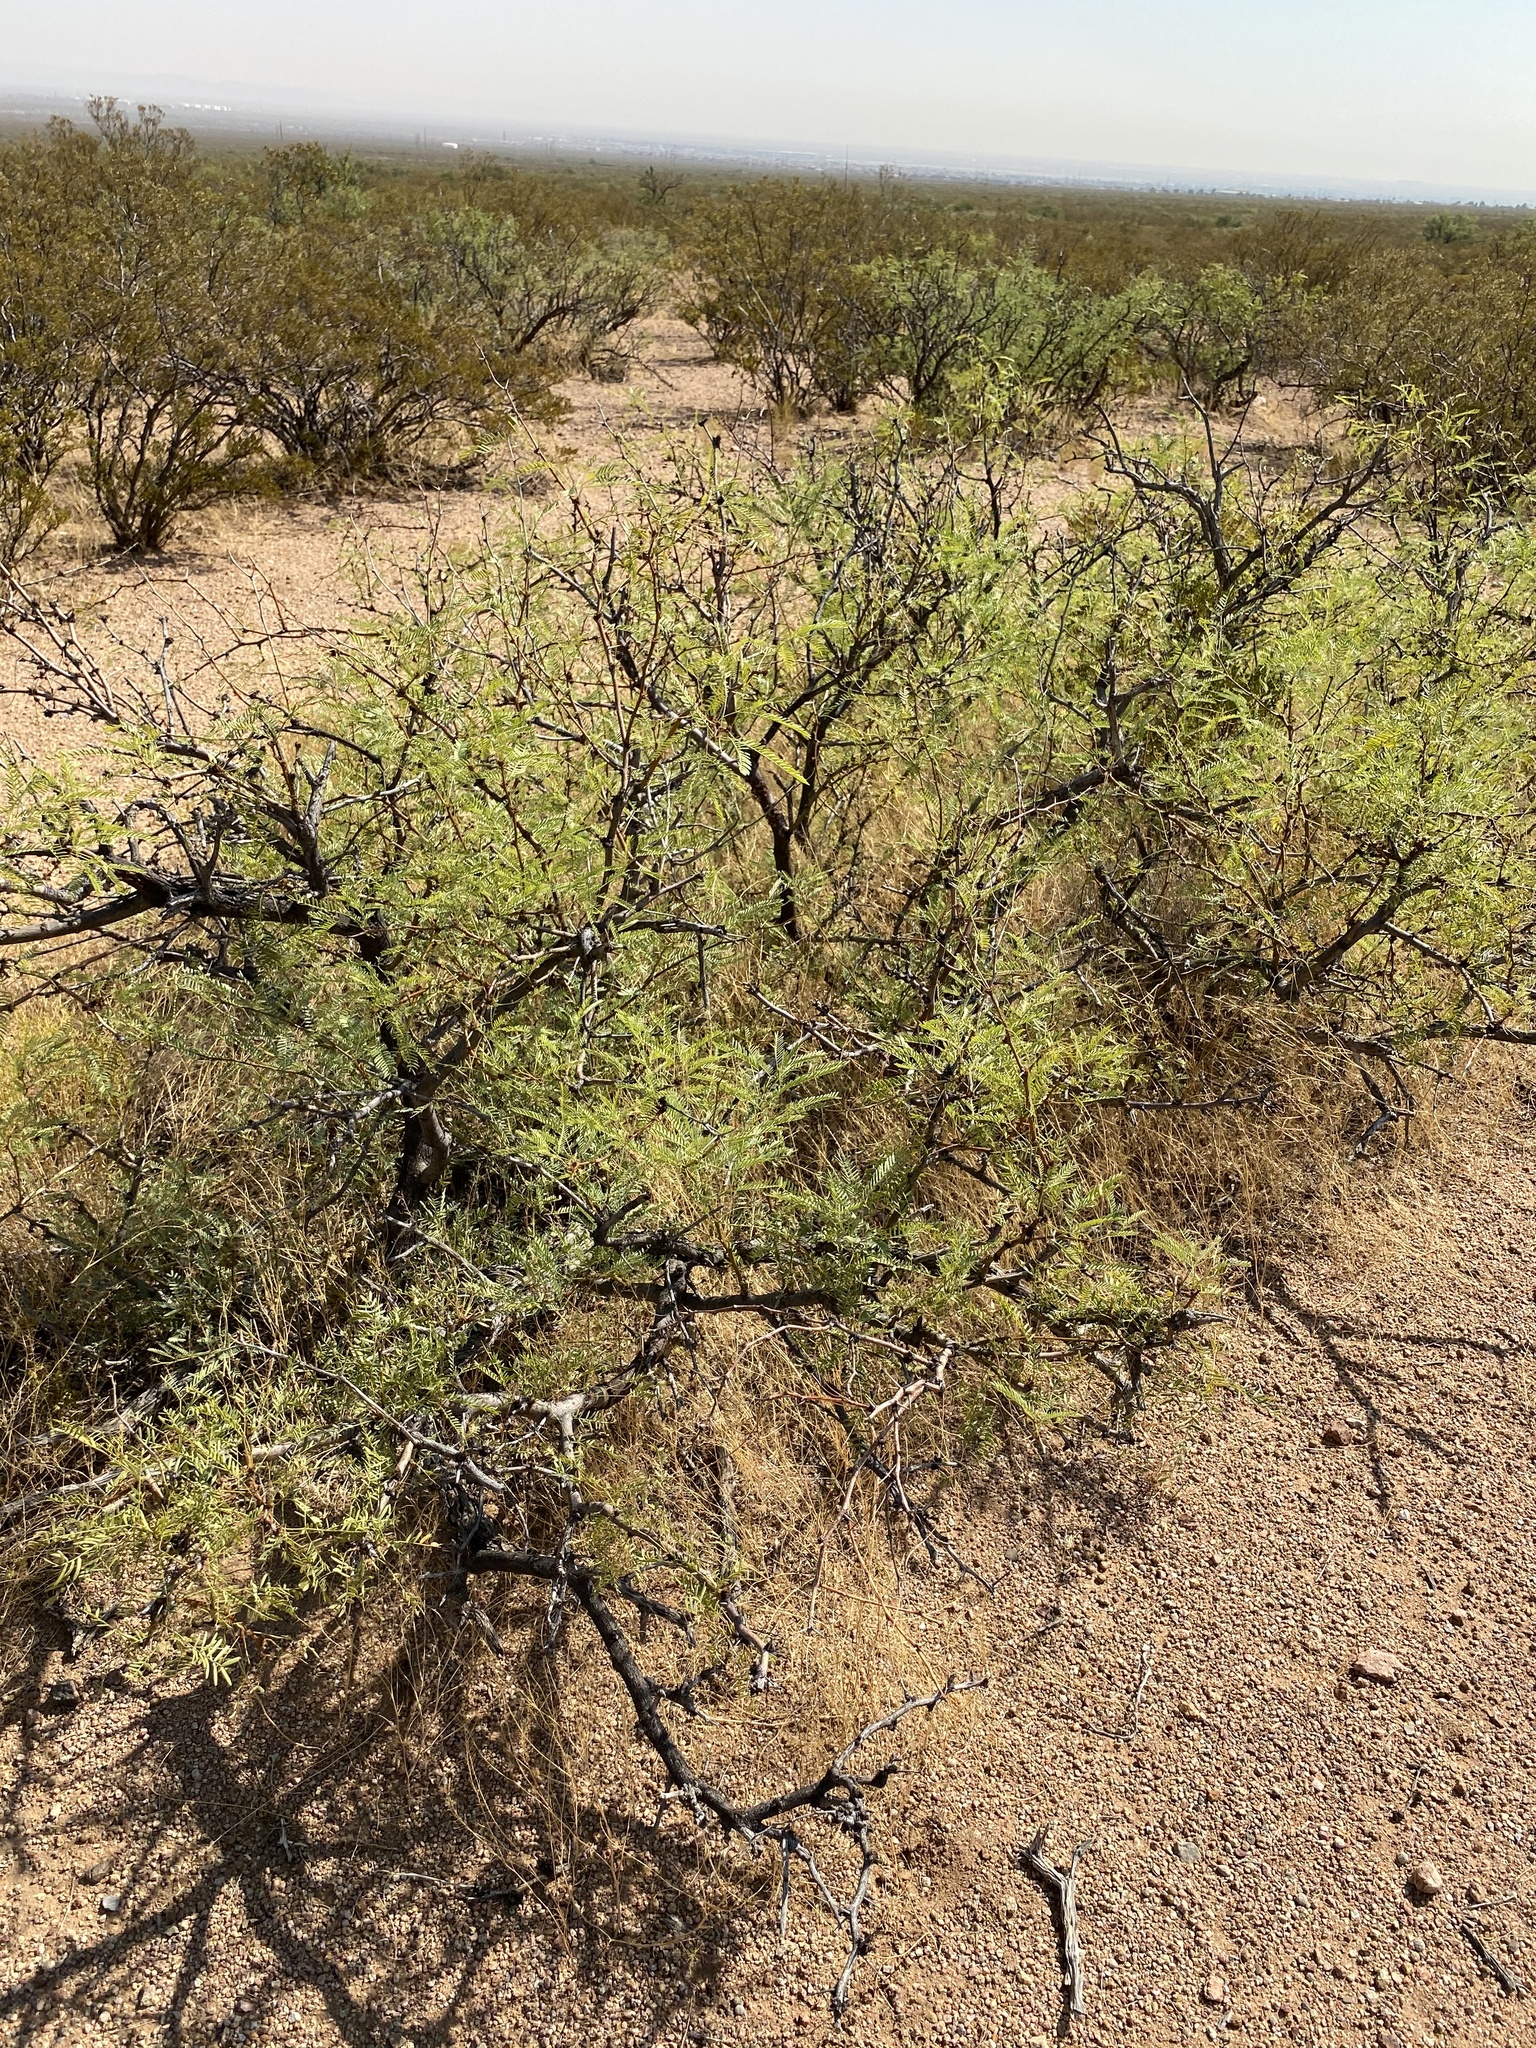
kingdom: Plantae
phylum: Tracheophyta
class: Magnoliopsida
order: Fabales
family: Fabaceae
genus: Prosopis
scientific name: Prosopis glandulosa
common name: Honey mesquite
